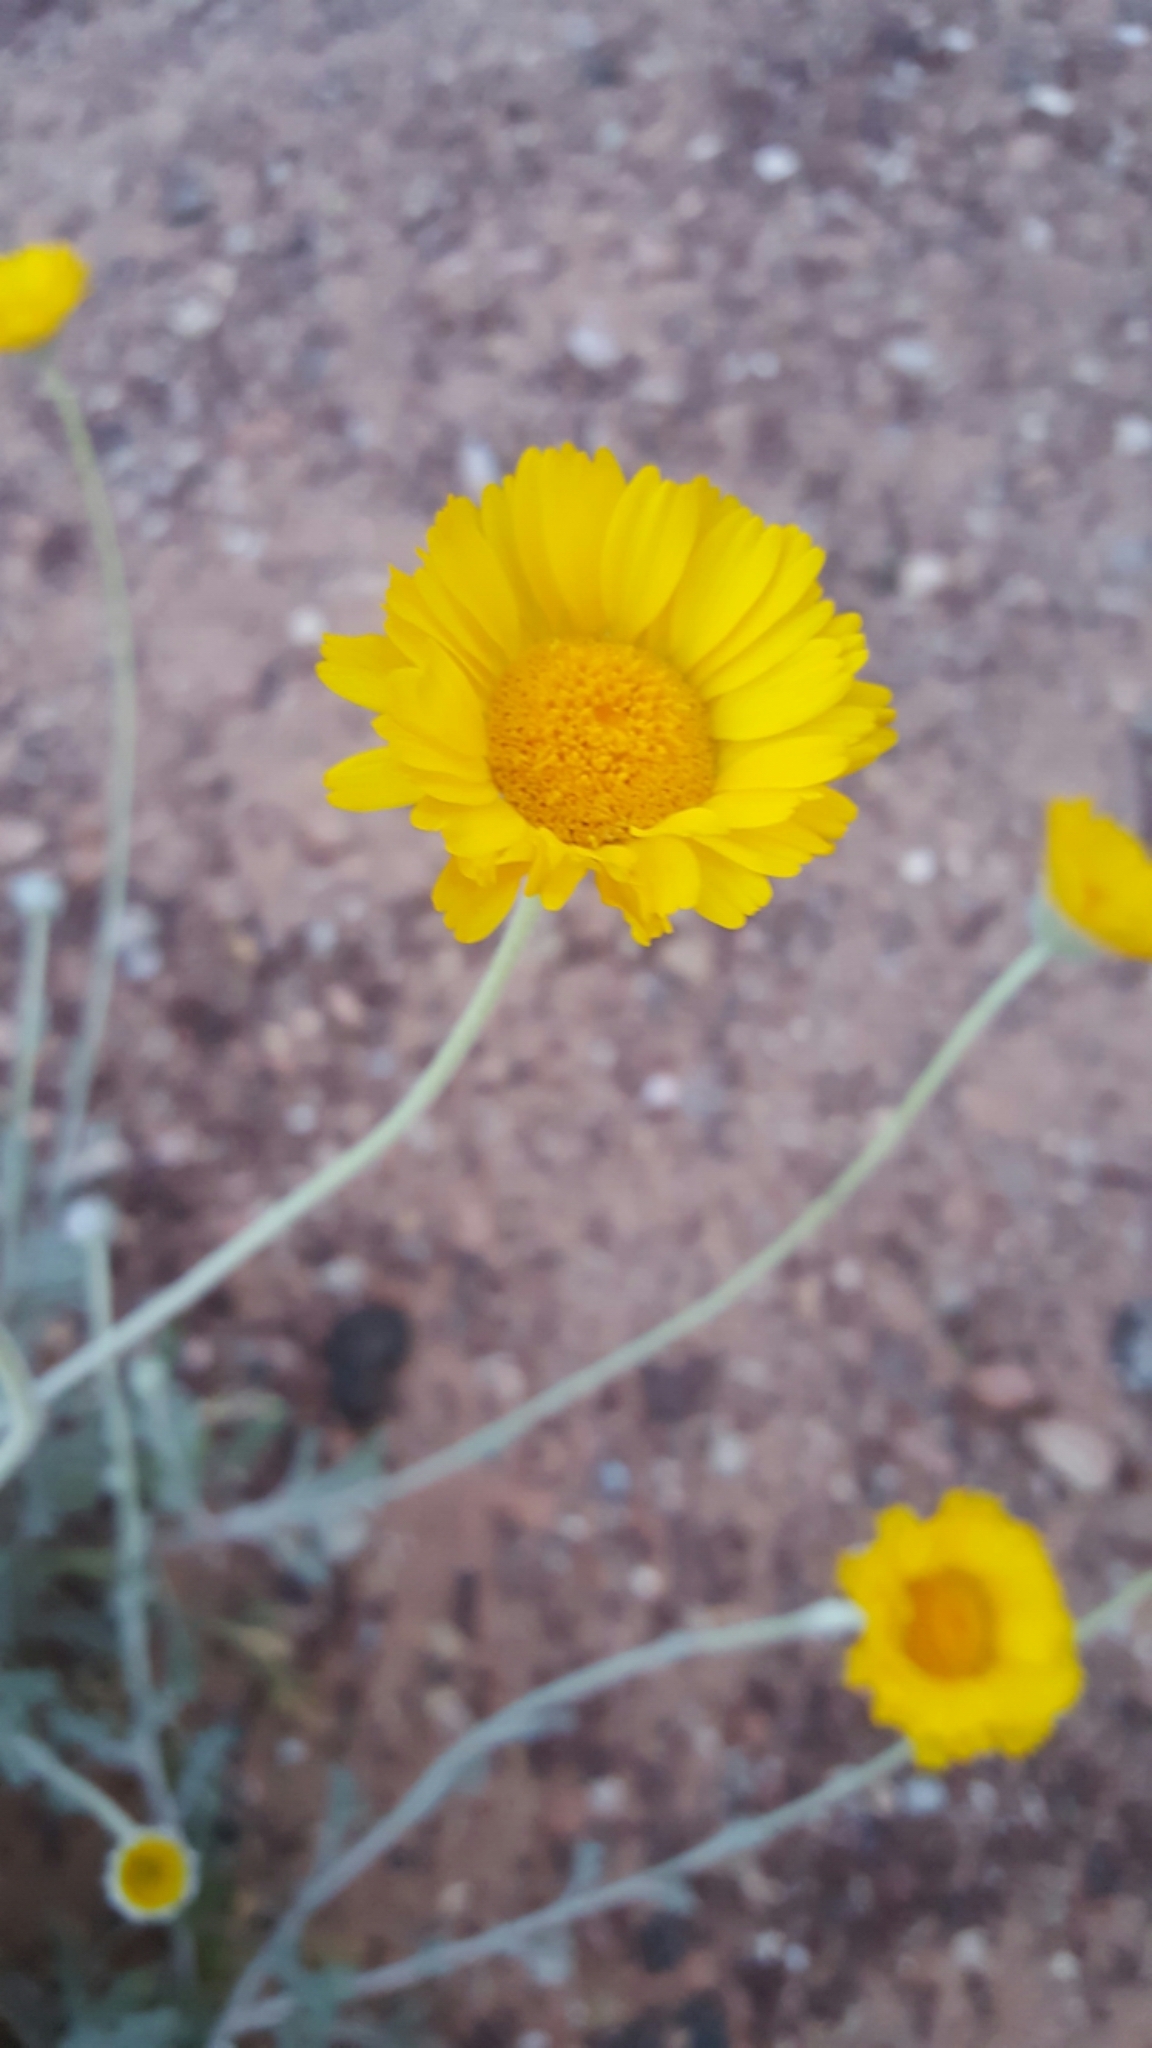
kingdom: Plantae
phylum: Tracheophyta
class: Magnoliopsida
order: Asterales
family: Asteraceae
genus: Baileya
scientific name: Baileya multiradiata
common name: Desert-marigold
